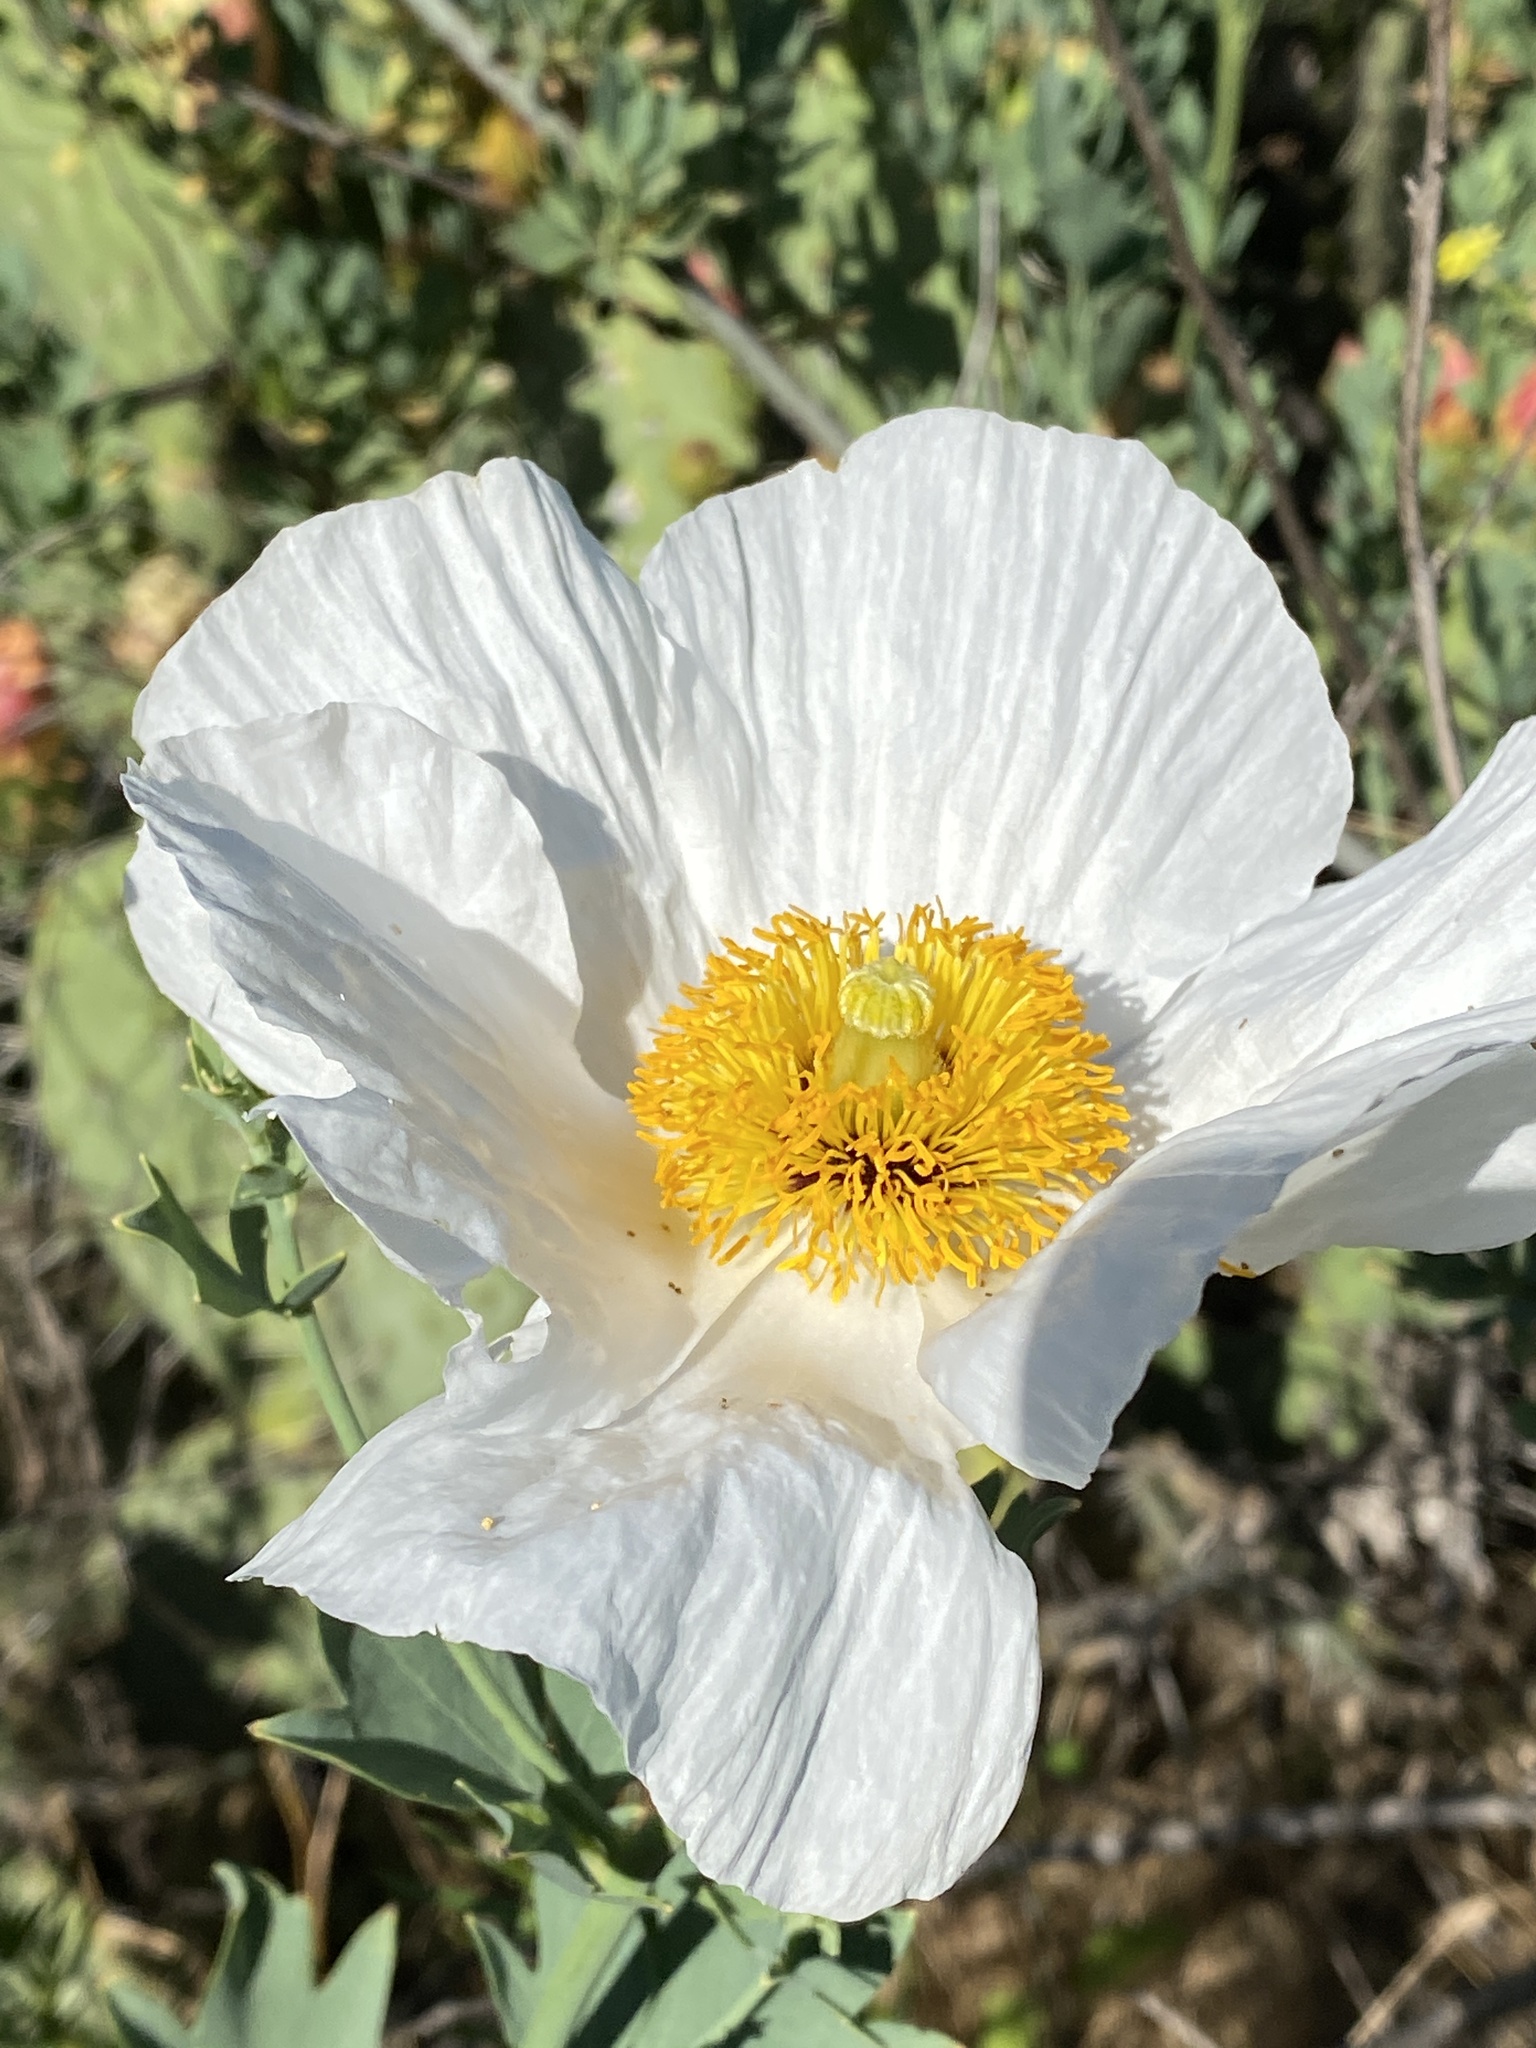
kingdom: Plantae
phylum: Tracheophyta
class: Magnoliopsida
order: Ranunculales
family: Papaveraceae
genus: Romneya
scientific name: Romneya coulteri
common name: California tree-poppy
